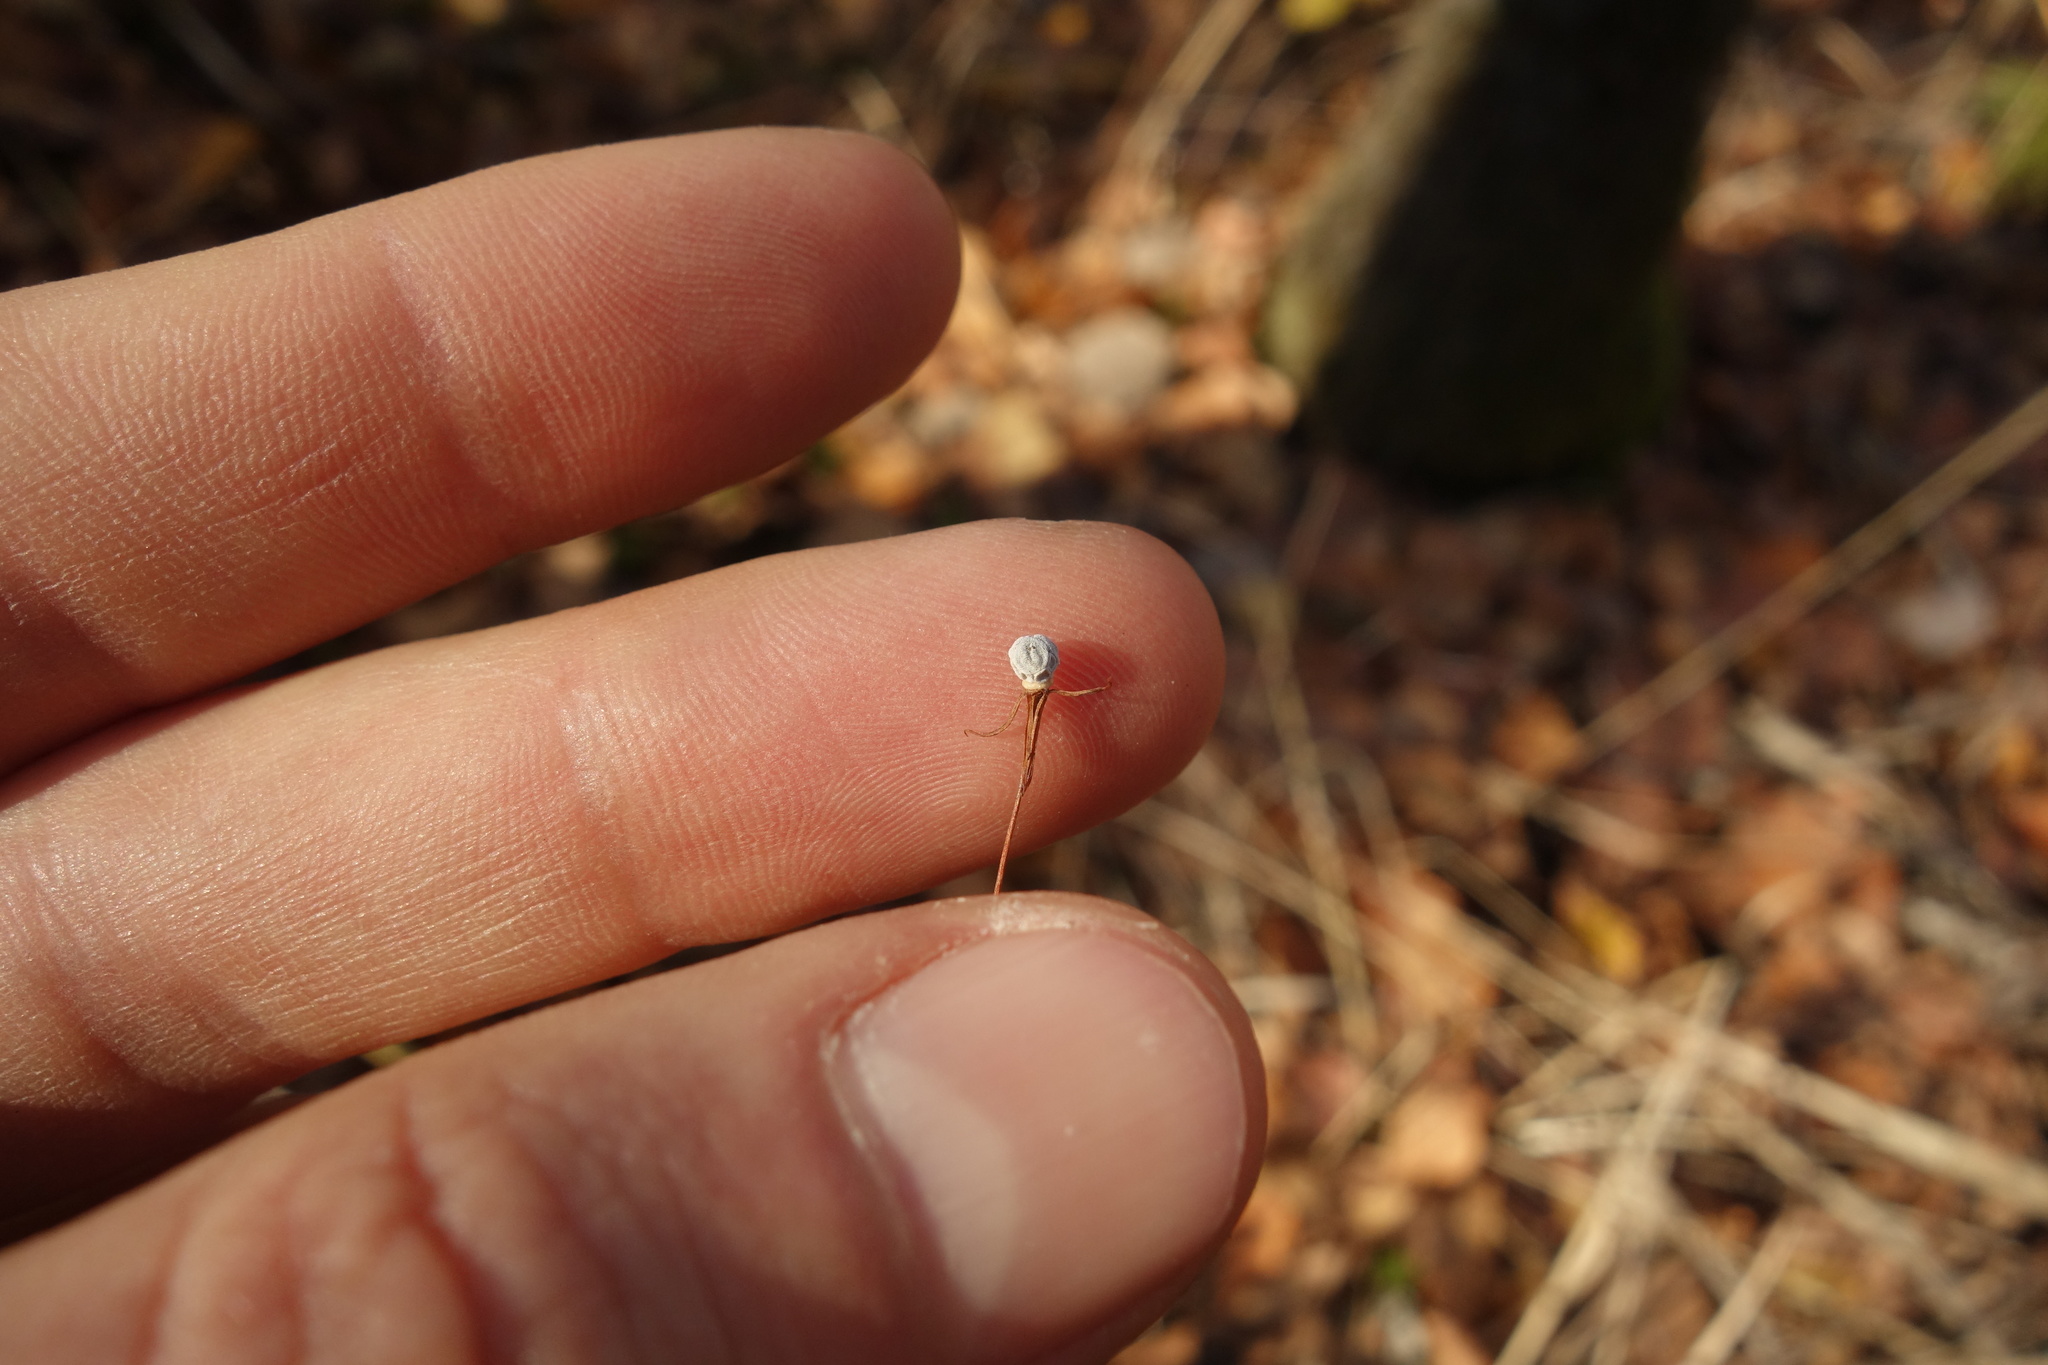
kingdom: Plantae
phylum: Tracheophyta
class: Magnoliopsida
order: Ericales
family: Primulaceae
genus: Lysimachia
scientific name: Lysimachia europaea
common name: Arctic starflower
